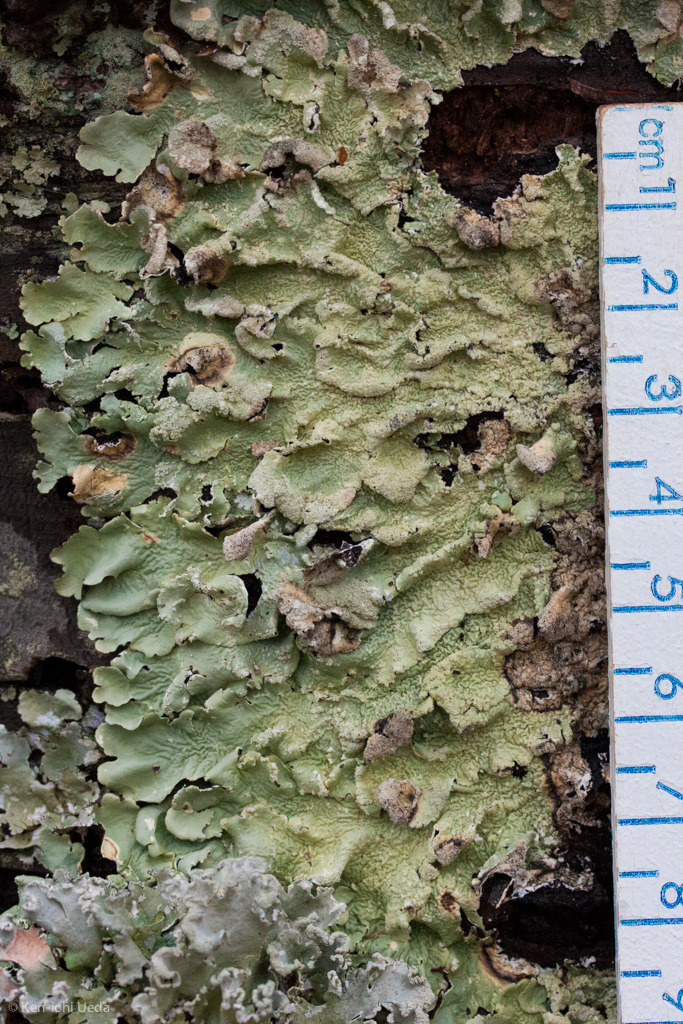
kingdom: Fungi
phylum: Ascomycota
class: Lecanoromycetes
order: Lecanorales
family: Parmeliaceae
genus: Flavoparmelia
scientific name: Flavoparmelia caperata
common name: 40-mile per hour lichen
